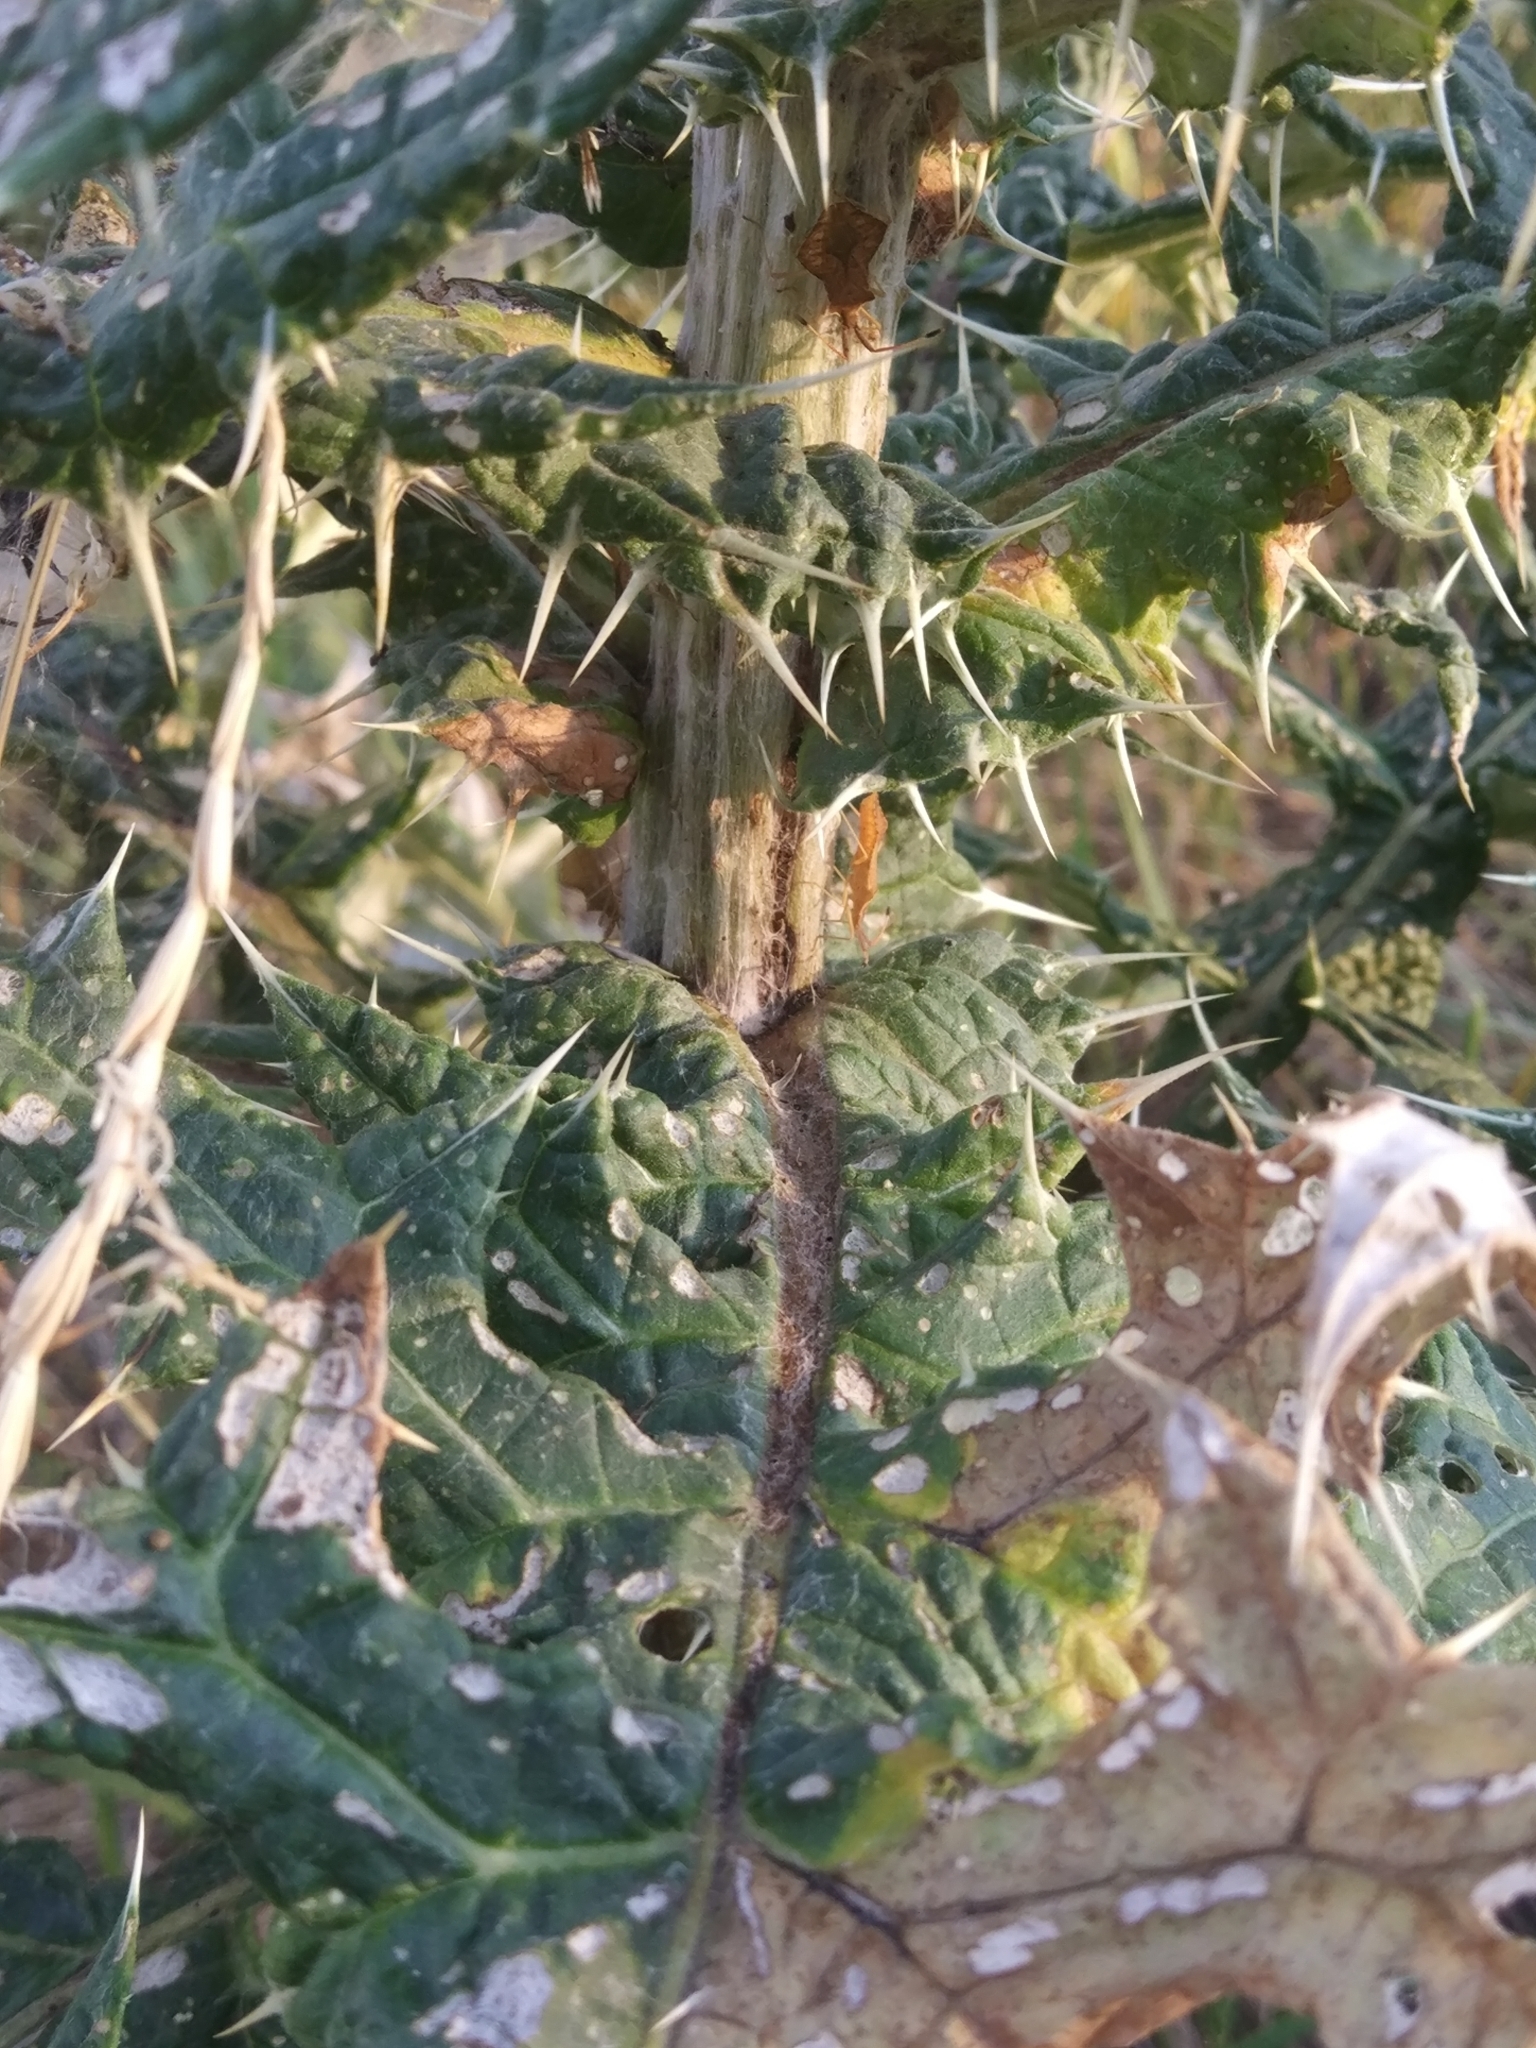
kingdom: Plantae
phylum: Tracheophyta
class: Magnoliopsida
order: Asterales
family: Asteraceae
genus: Echinops
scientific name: Echinops sphaerocephalus
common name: Glandular globe-thistle
